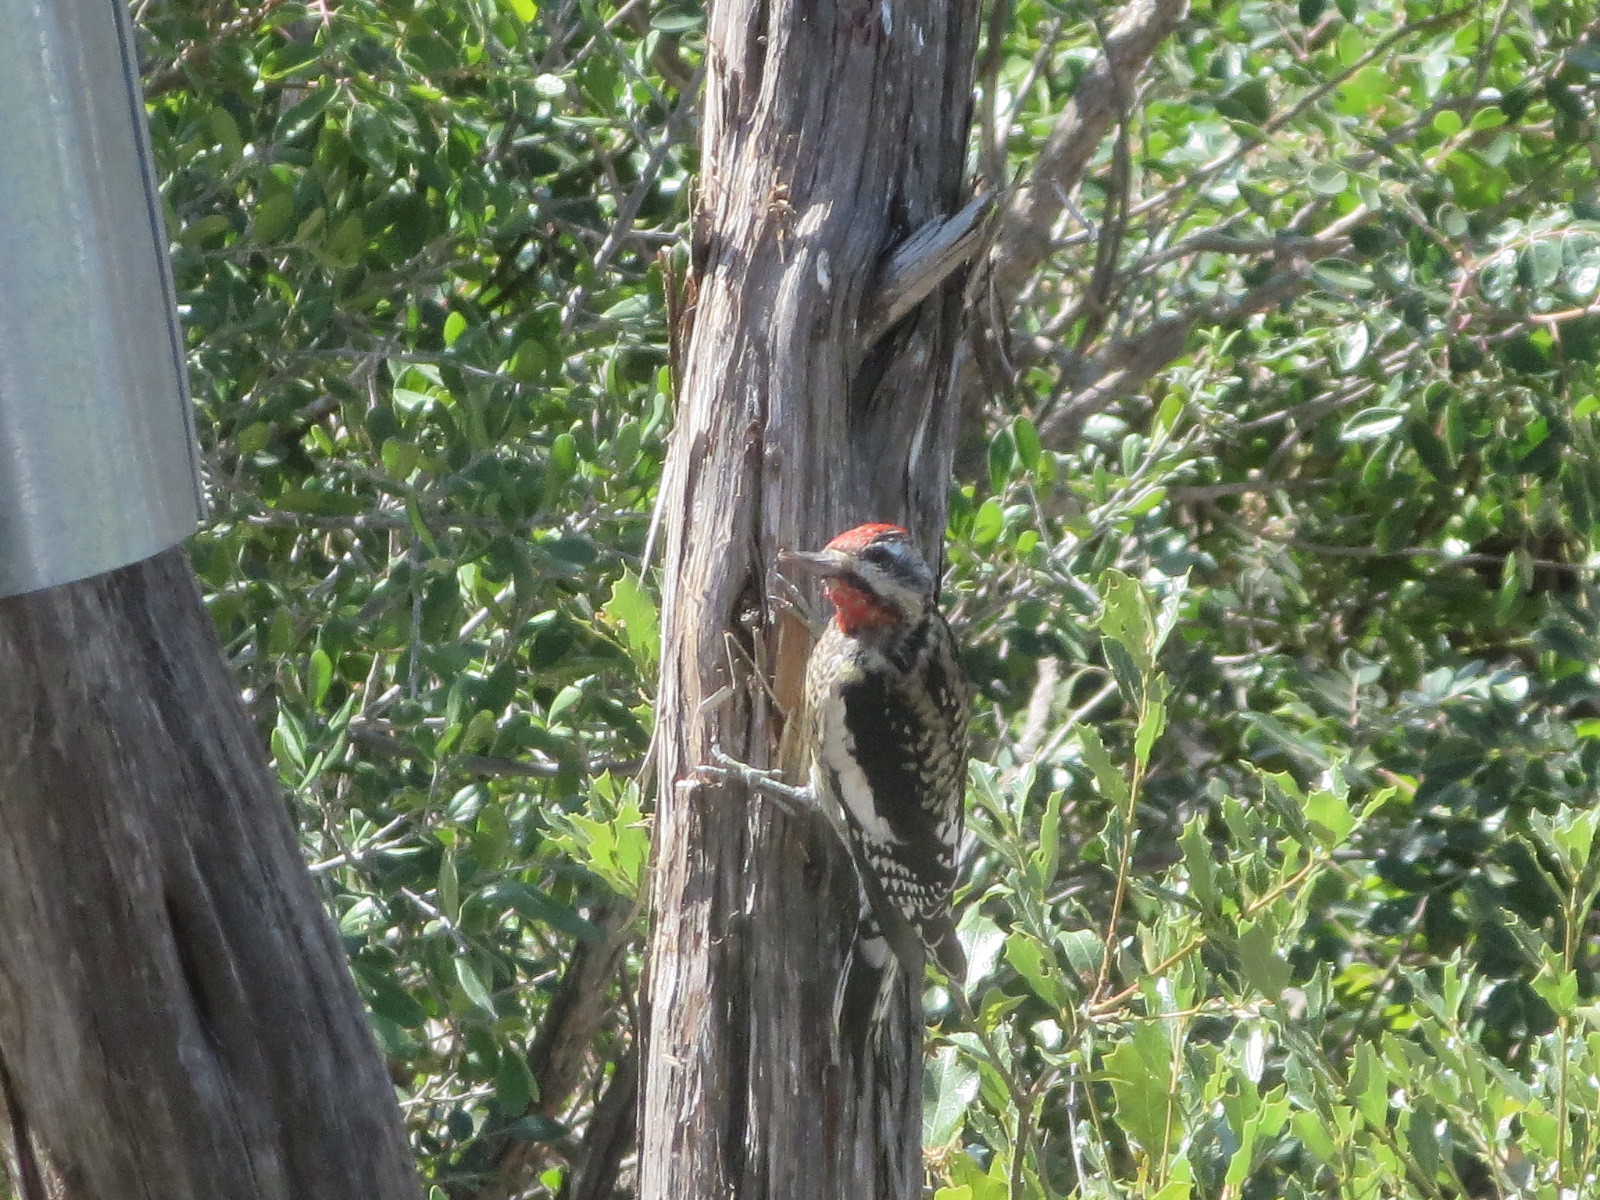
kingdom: Animalia
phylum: Chordata
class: Aves
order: Piciformes
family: Picidae
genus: Sphyrapicus
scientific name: Sphyrapicus varius
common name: Yellow-bellied sapsucker
